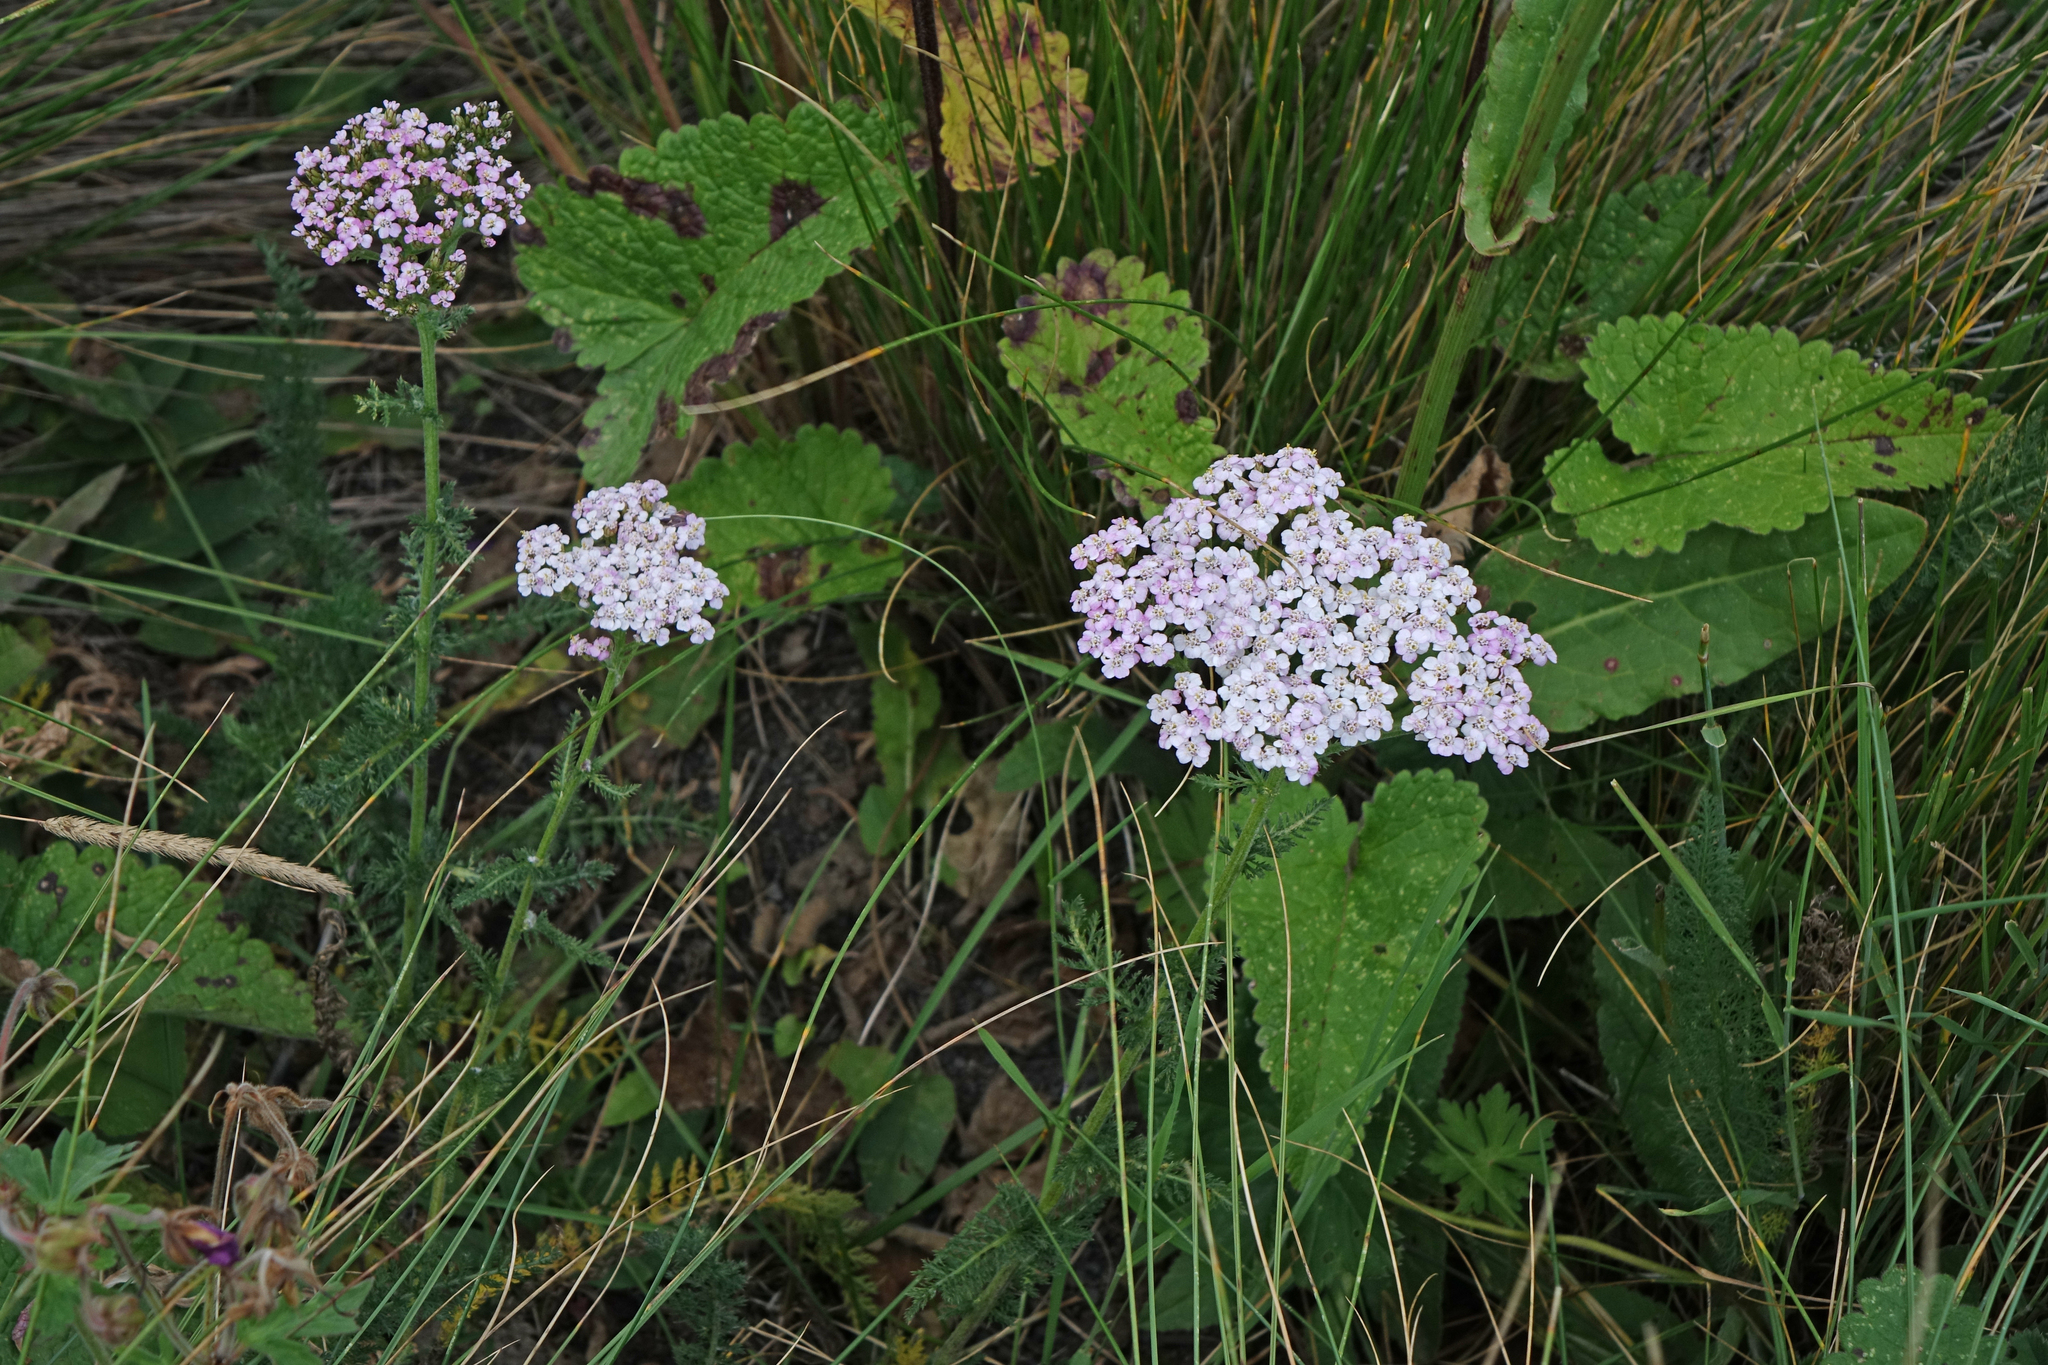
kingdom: Plantae
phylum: Tracheophyta
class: Magnoliopsida
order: Asterales
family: Asteraceae
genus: Achillea
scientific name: Achillea millefolium
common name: Yarrow
